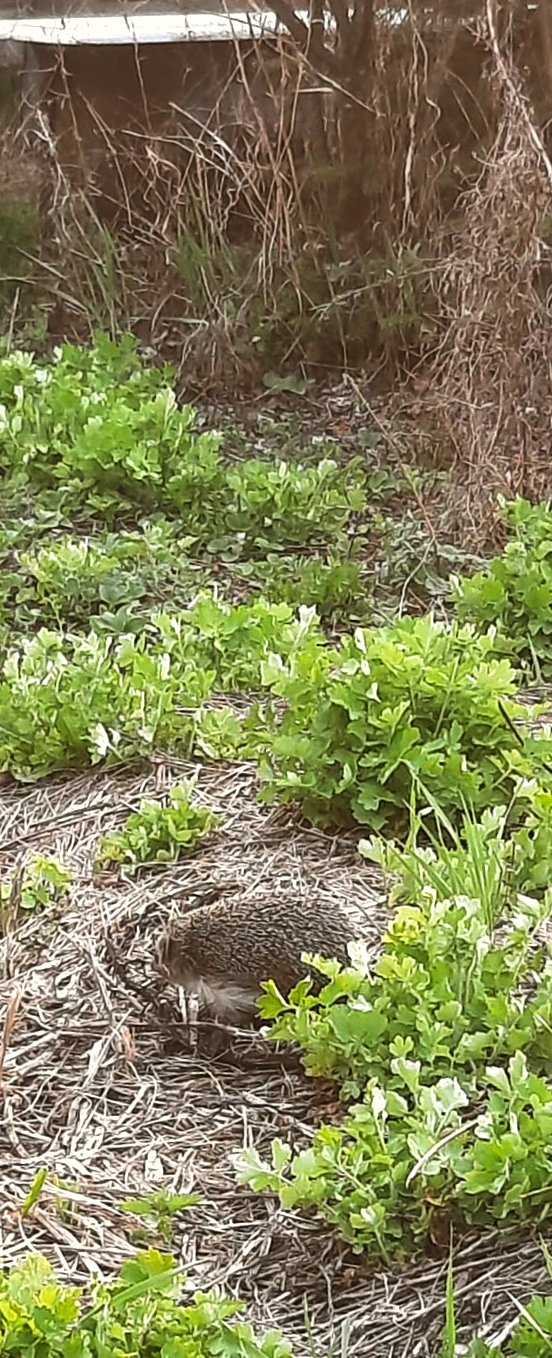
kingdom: Animalia
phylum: Chordata
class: Mammalia
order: Erinaceomorpha
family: Erinaceidae
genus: Erinaceus
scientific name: Erinaceus roumanicus
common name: Northern white-breasted hedgehog
